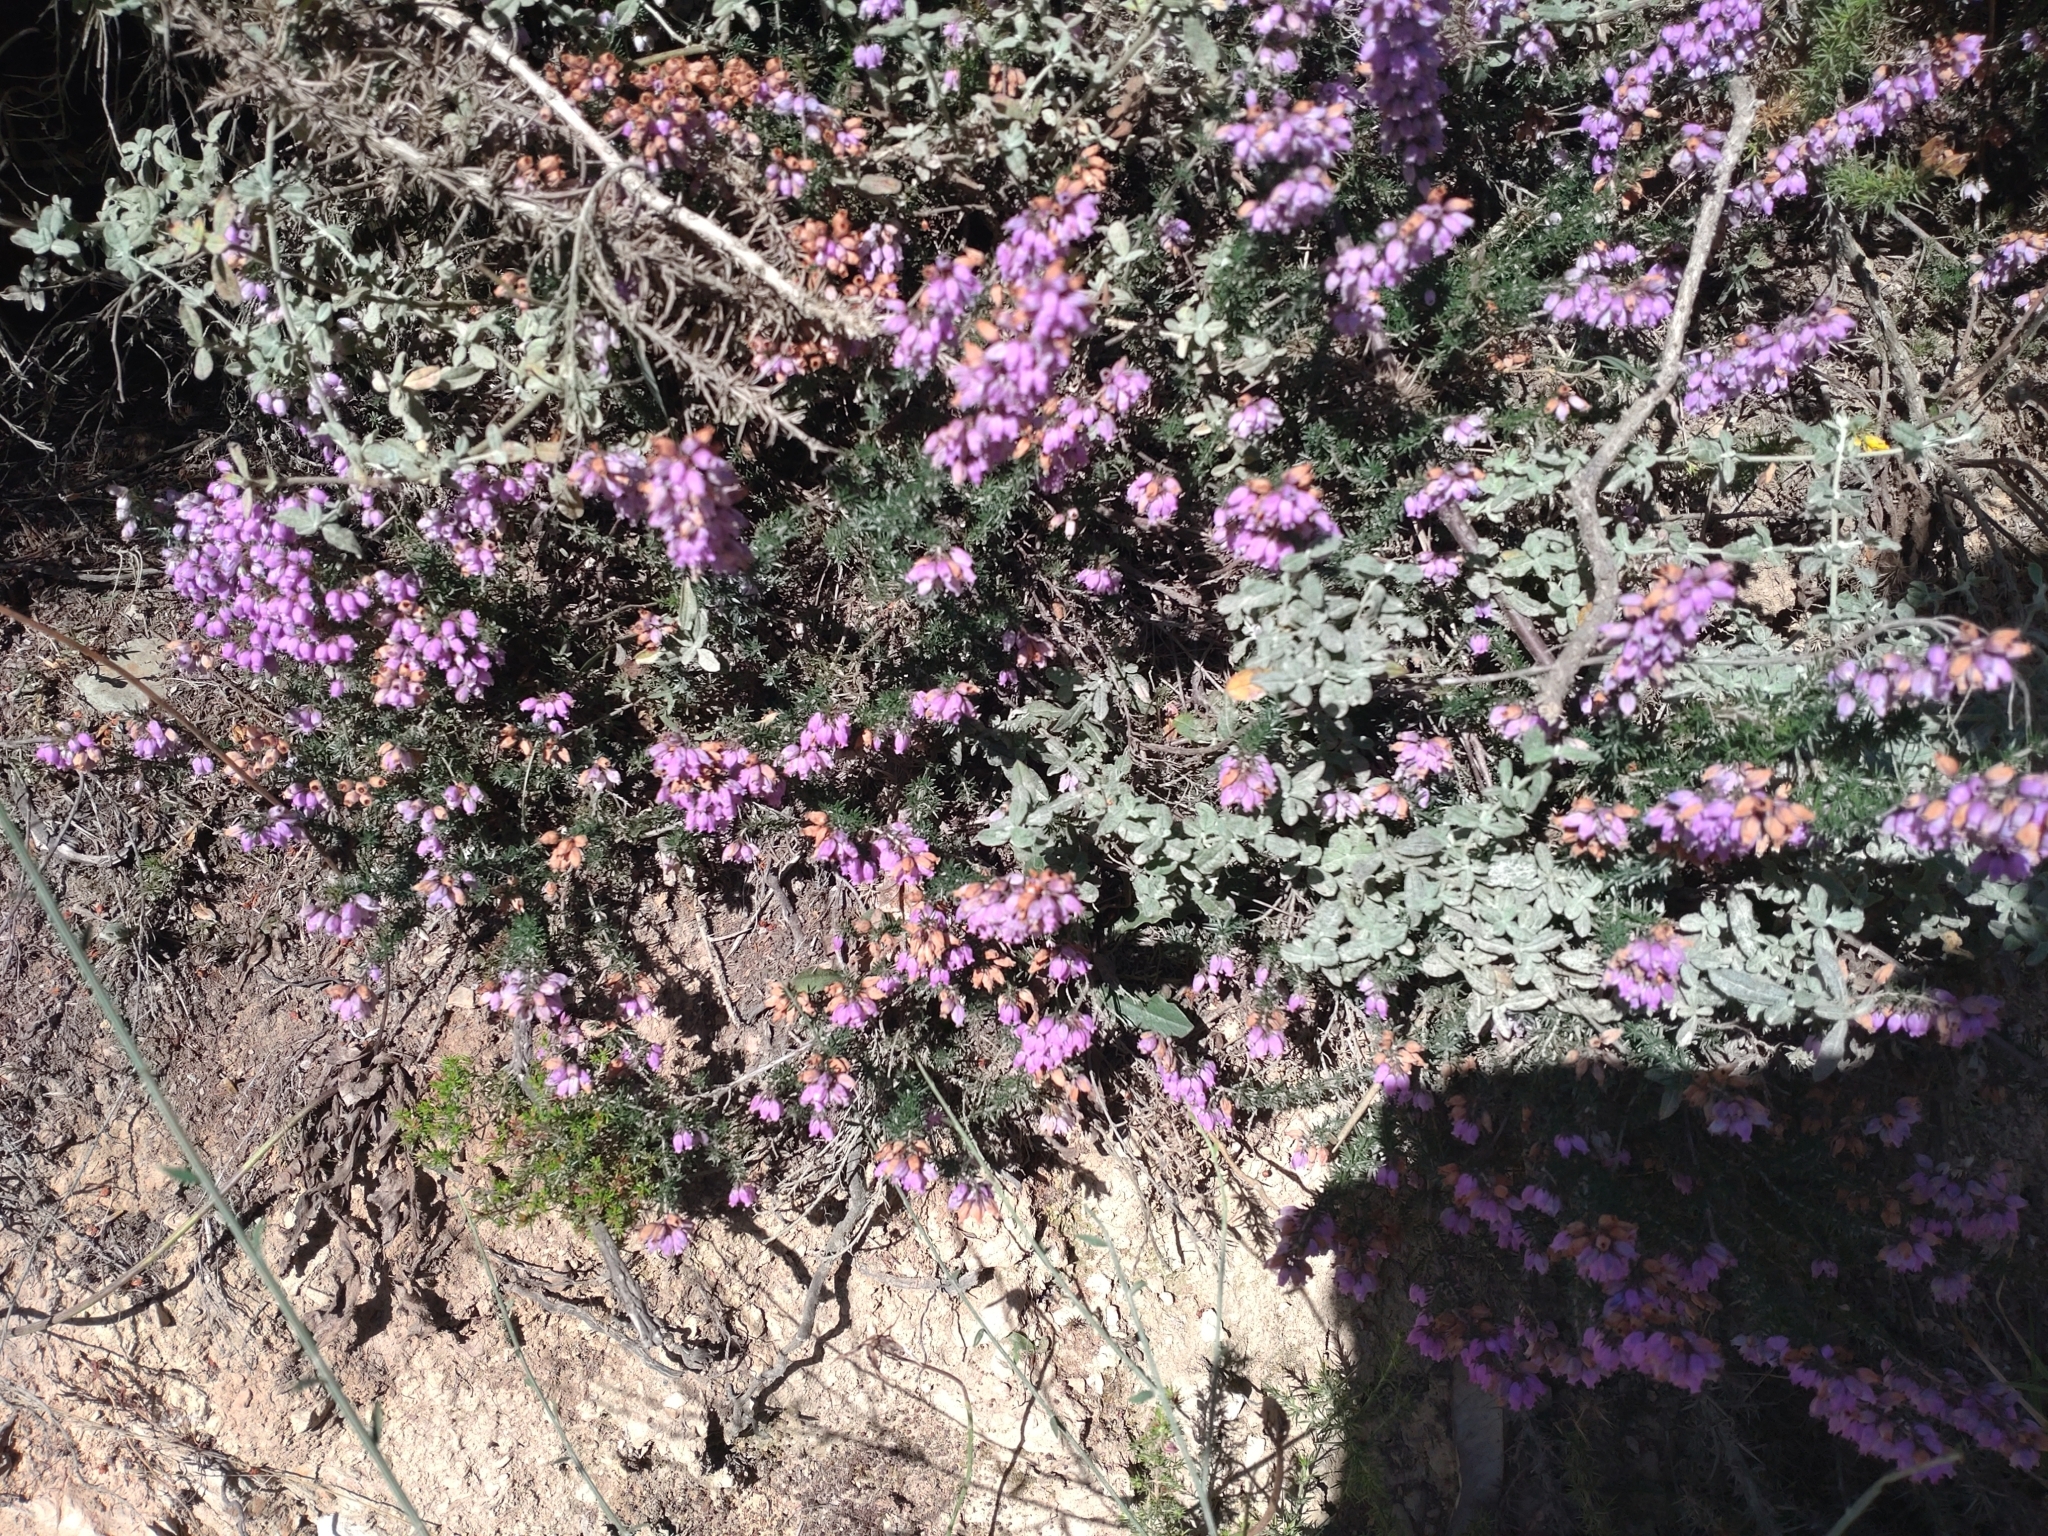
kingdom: Plantae
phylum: Tracheophyta
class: Magnoliopsida
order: Ericales
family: Ericaceae
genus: Erica
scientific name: Erica cinerea
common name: Bell heather
